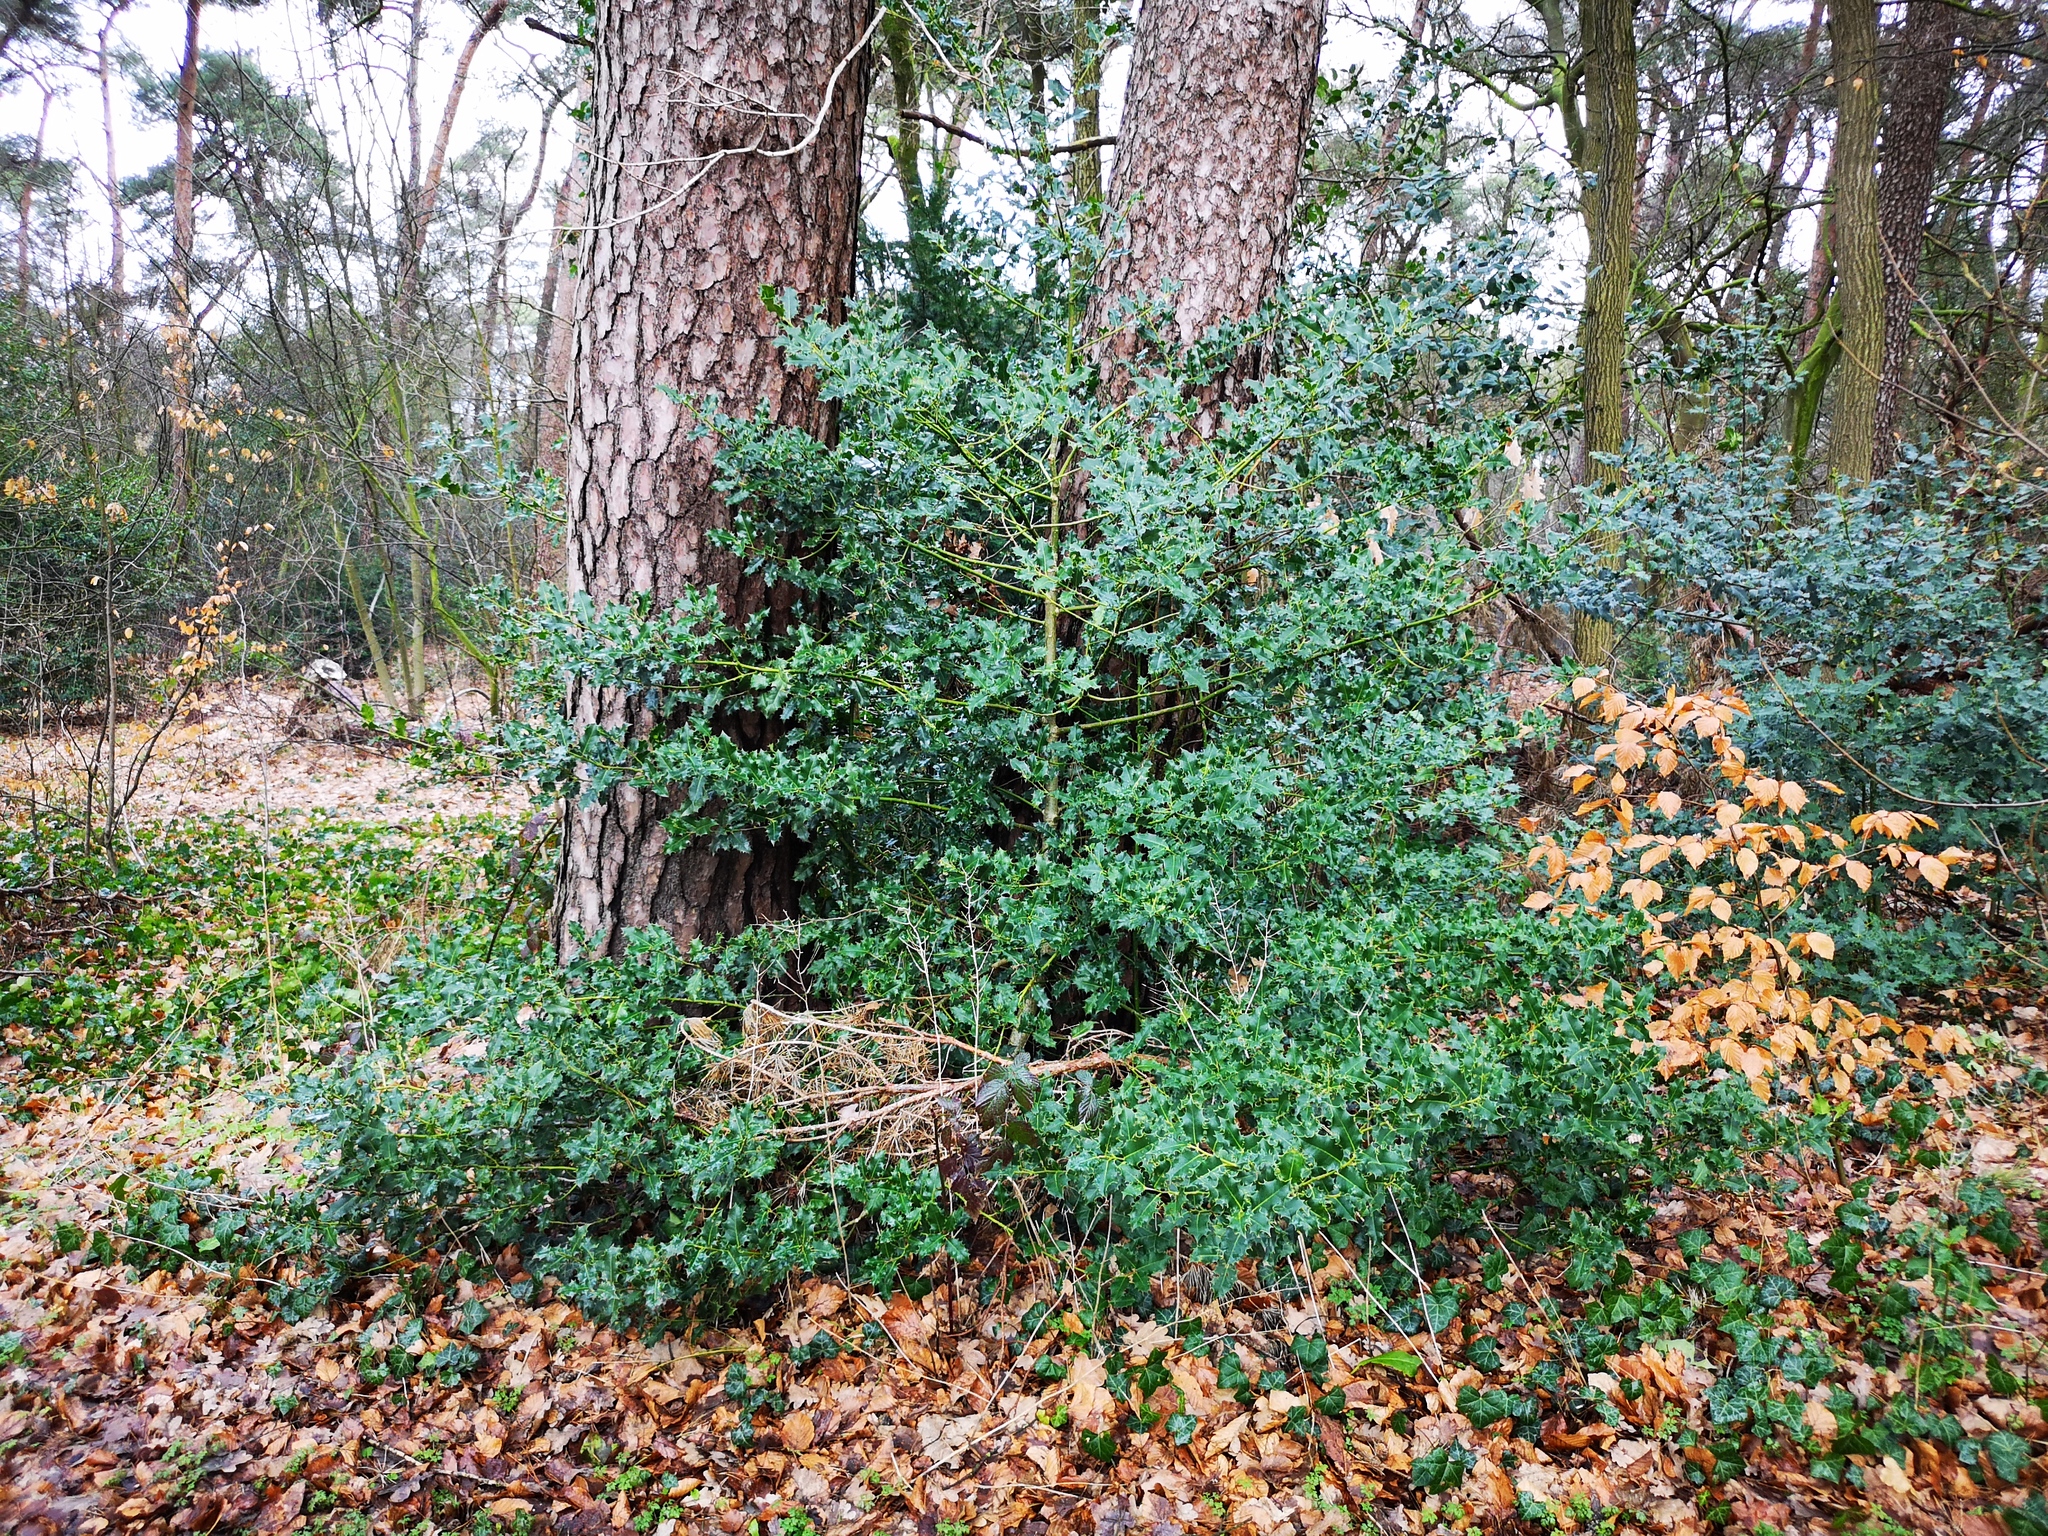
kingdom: Plantae
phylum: Tracheophyta
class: Magnoliopsida
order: Aquifoliales
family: Aquifoliaceae
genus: Ilex
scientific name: Ilex aquifolium
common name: English holly
